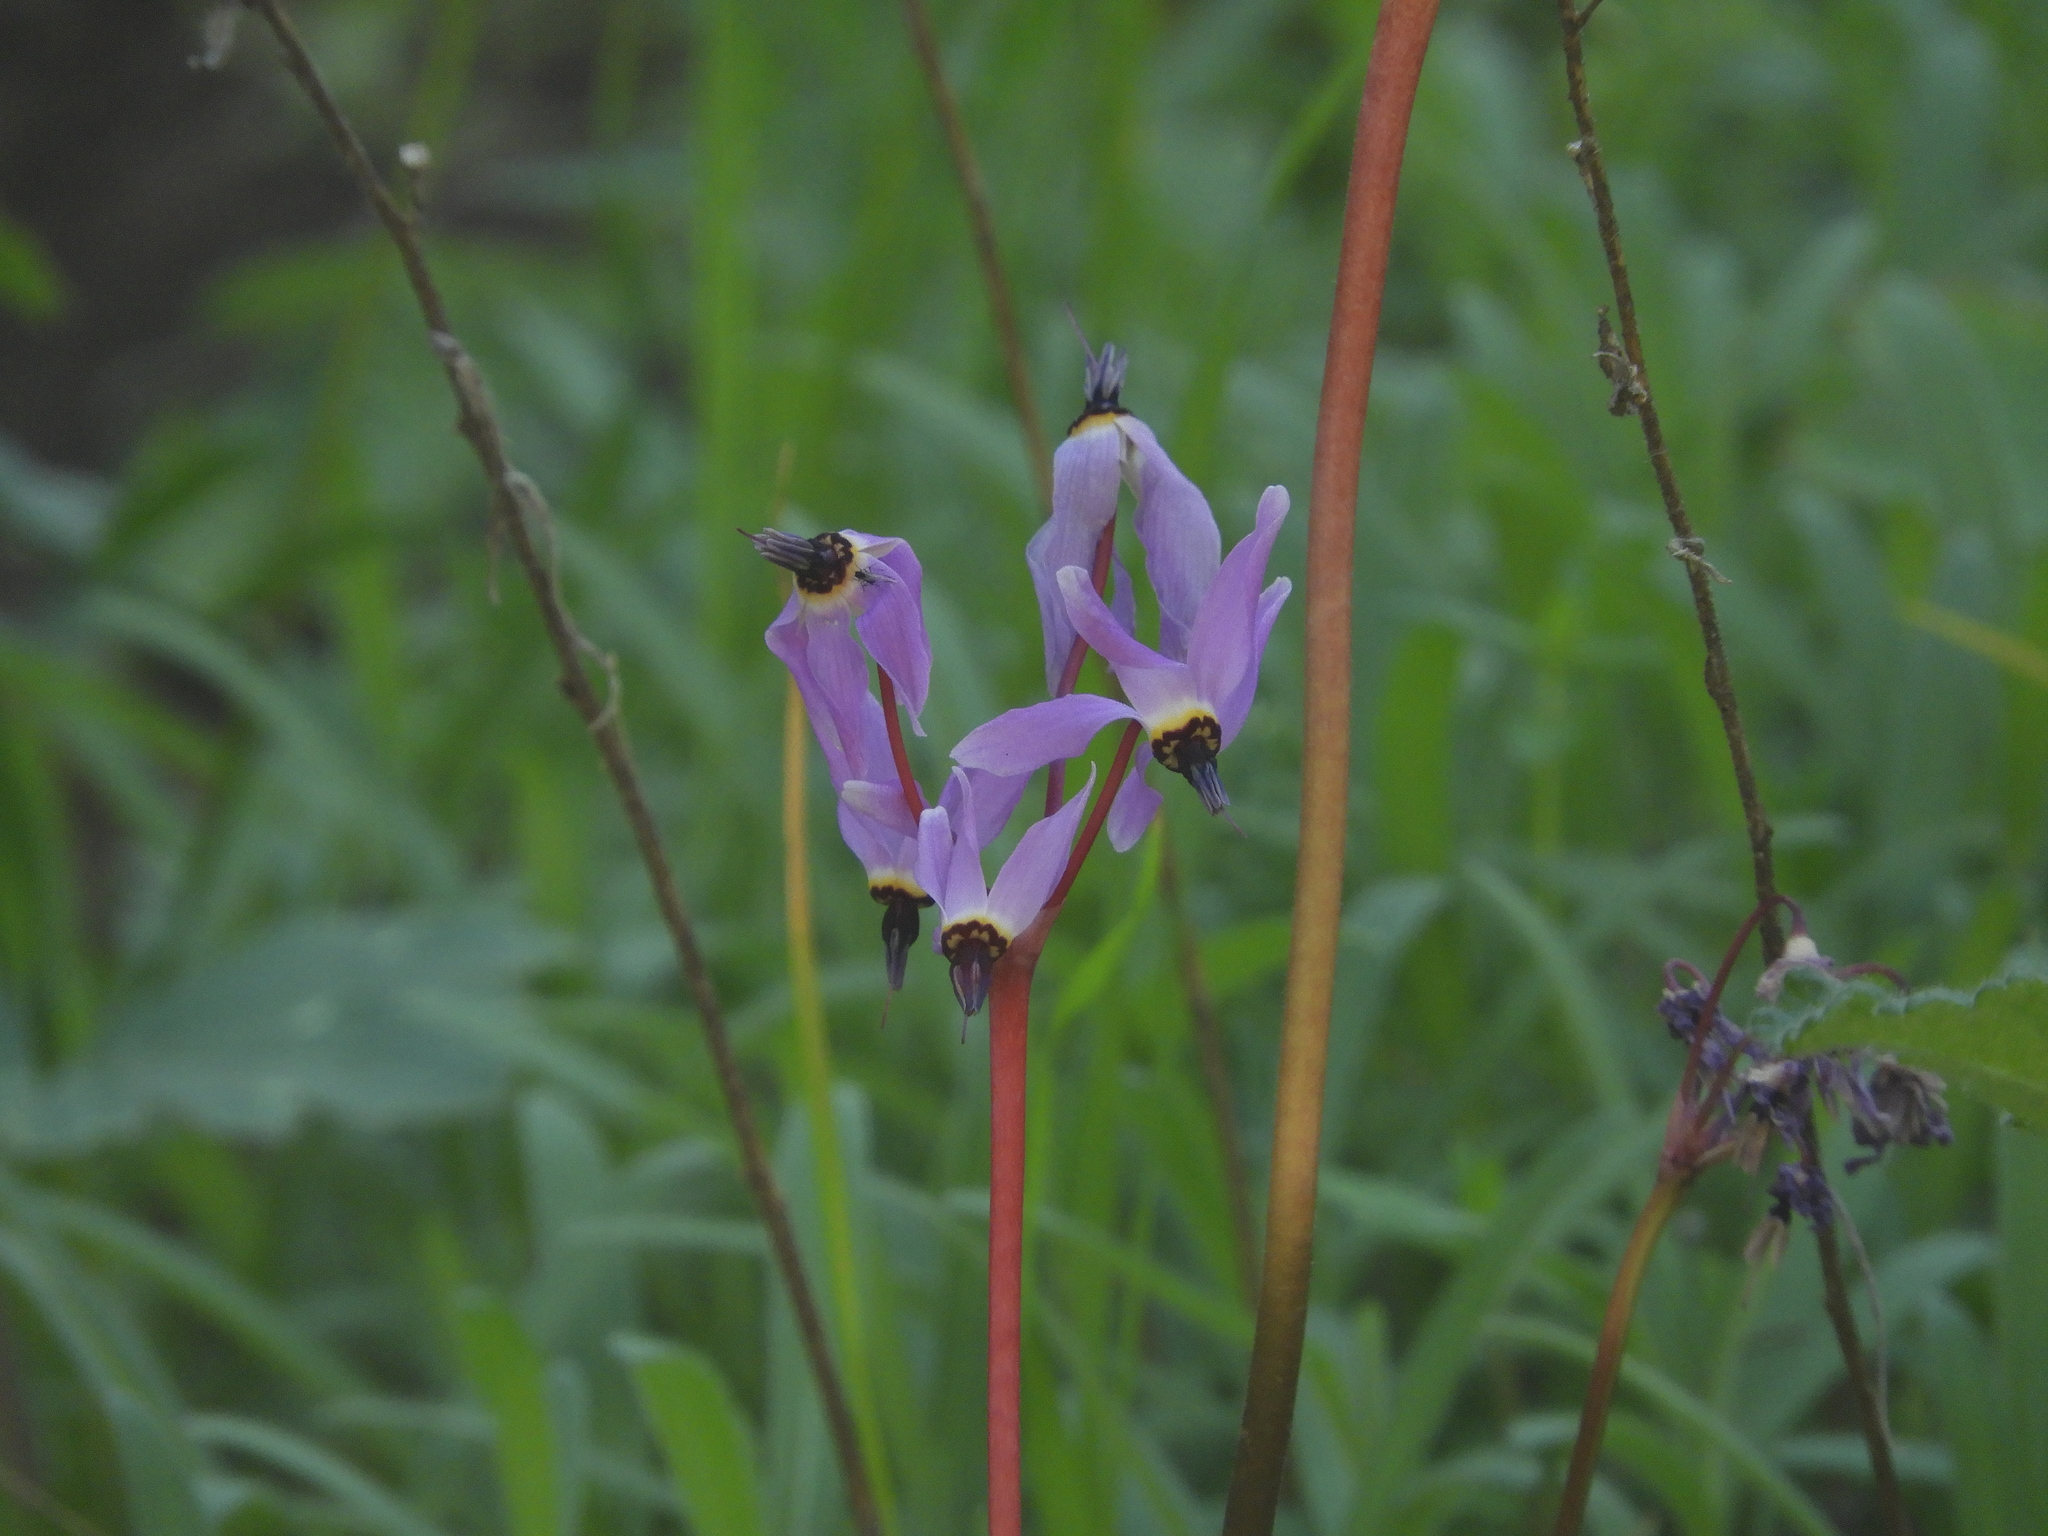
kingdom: Plantae
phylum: Tracheophyta
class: Magnoliopsida
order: Ericales
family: Primulaceae
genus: Dodecatheon
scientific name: Dodecatheon hendersonii
